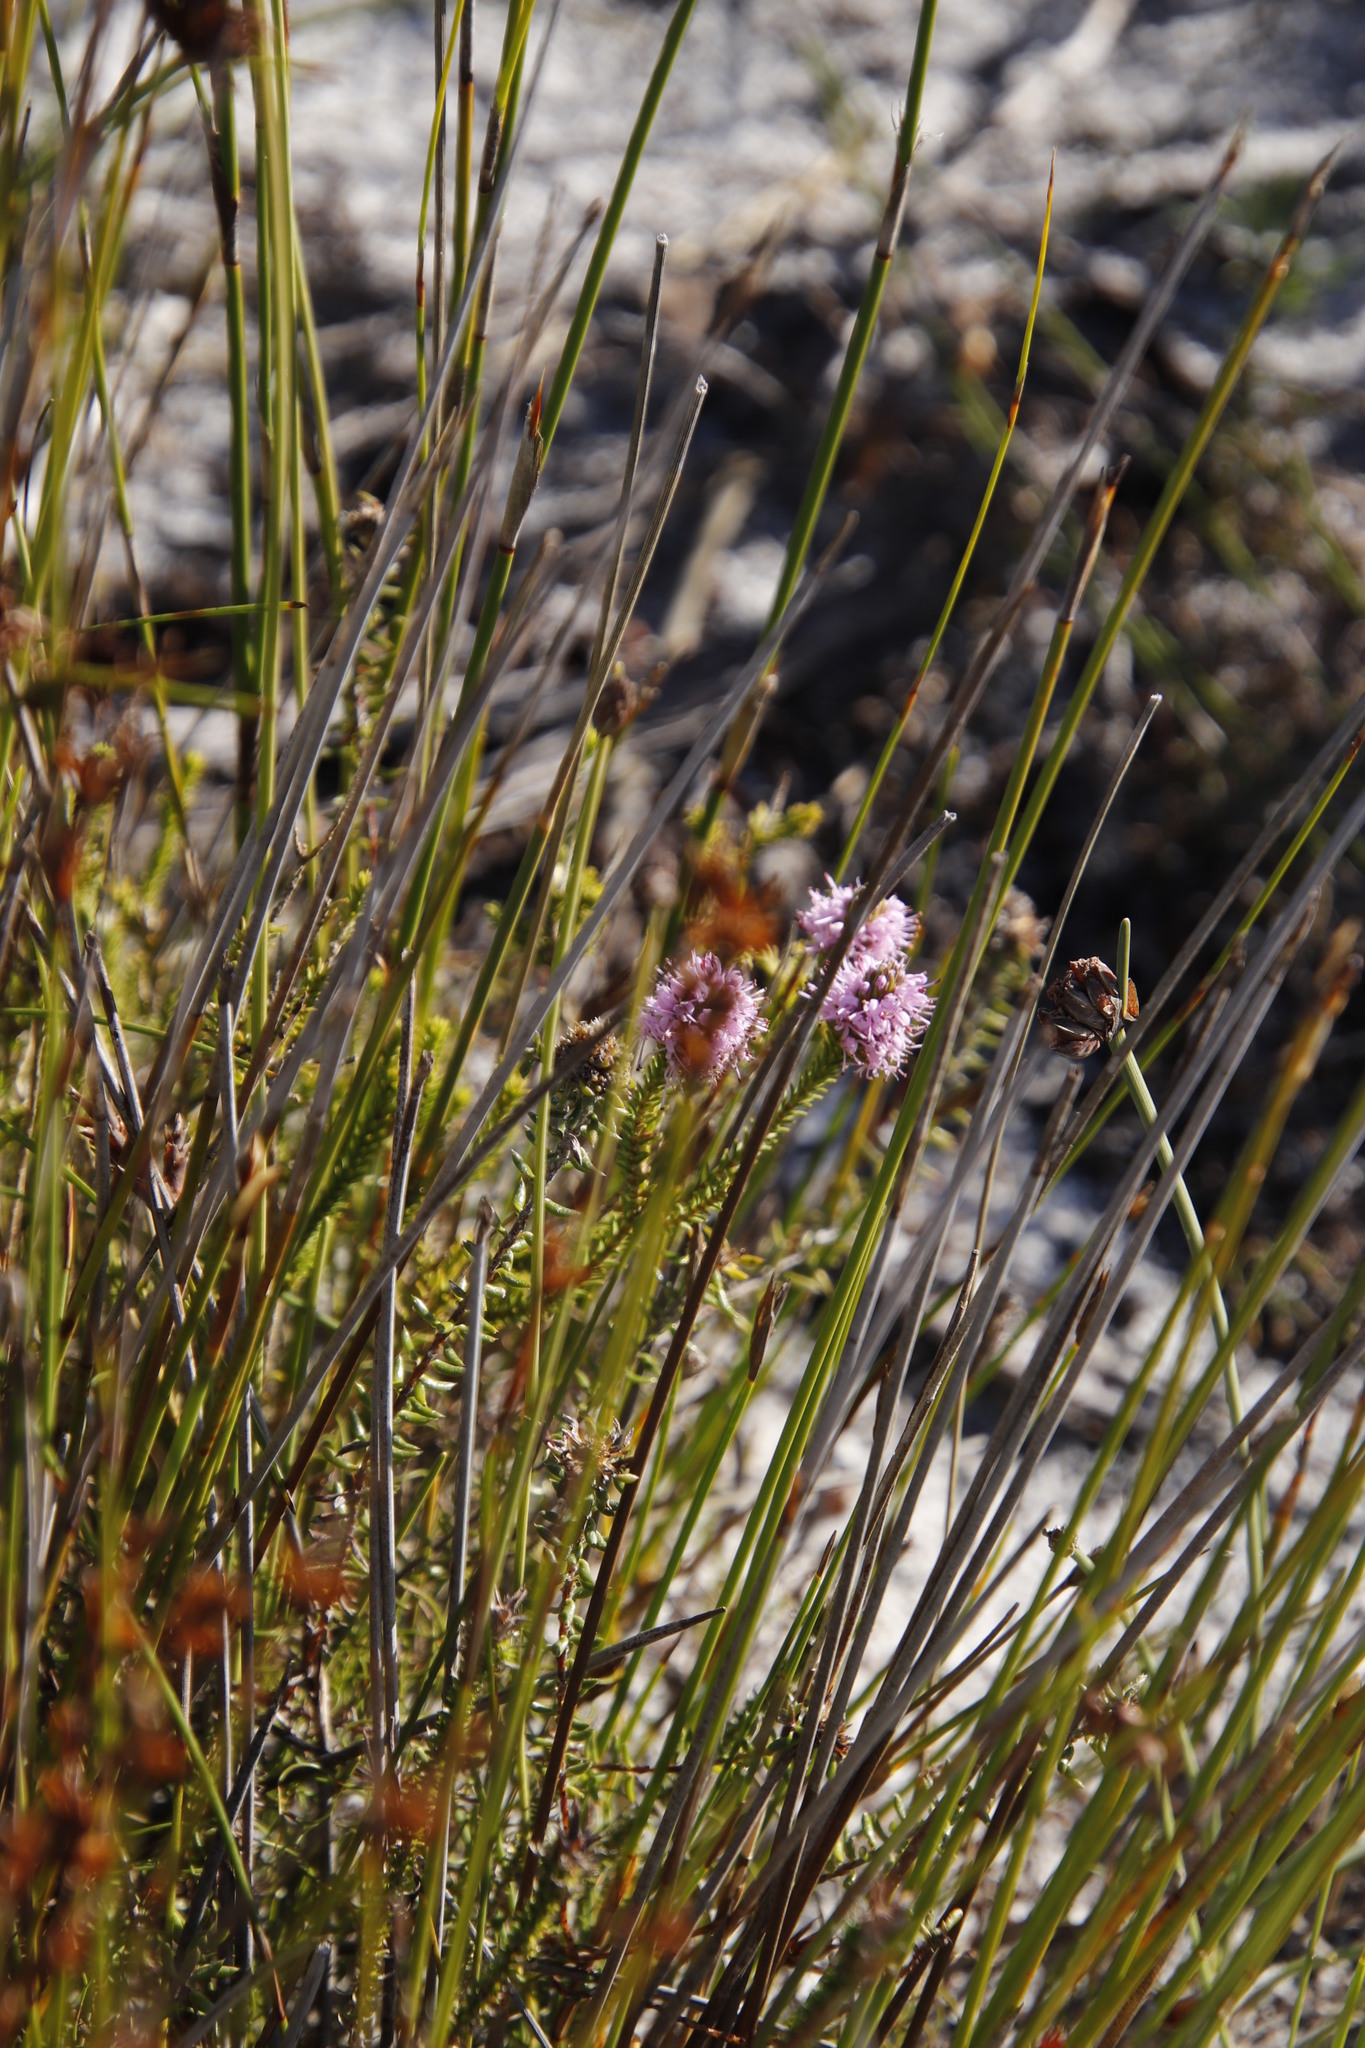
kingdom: Plantae
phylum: Tracheophyta
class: Magnoliopsida
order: Lamiales
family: Stilbaceae
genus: Stilbe
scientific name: Stilbe ericoides
